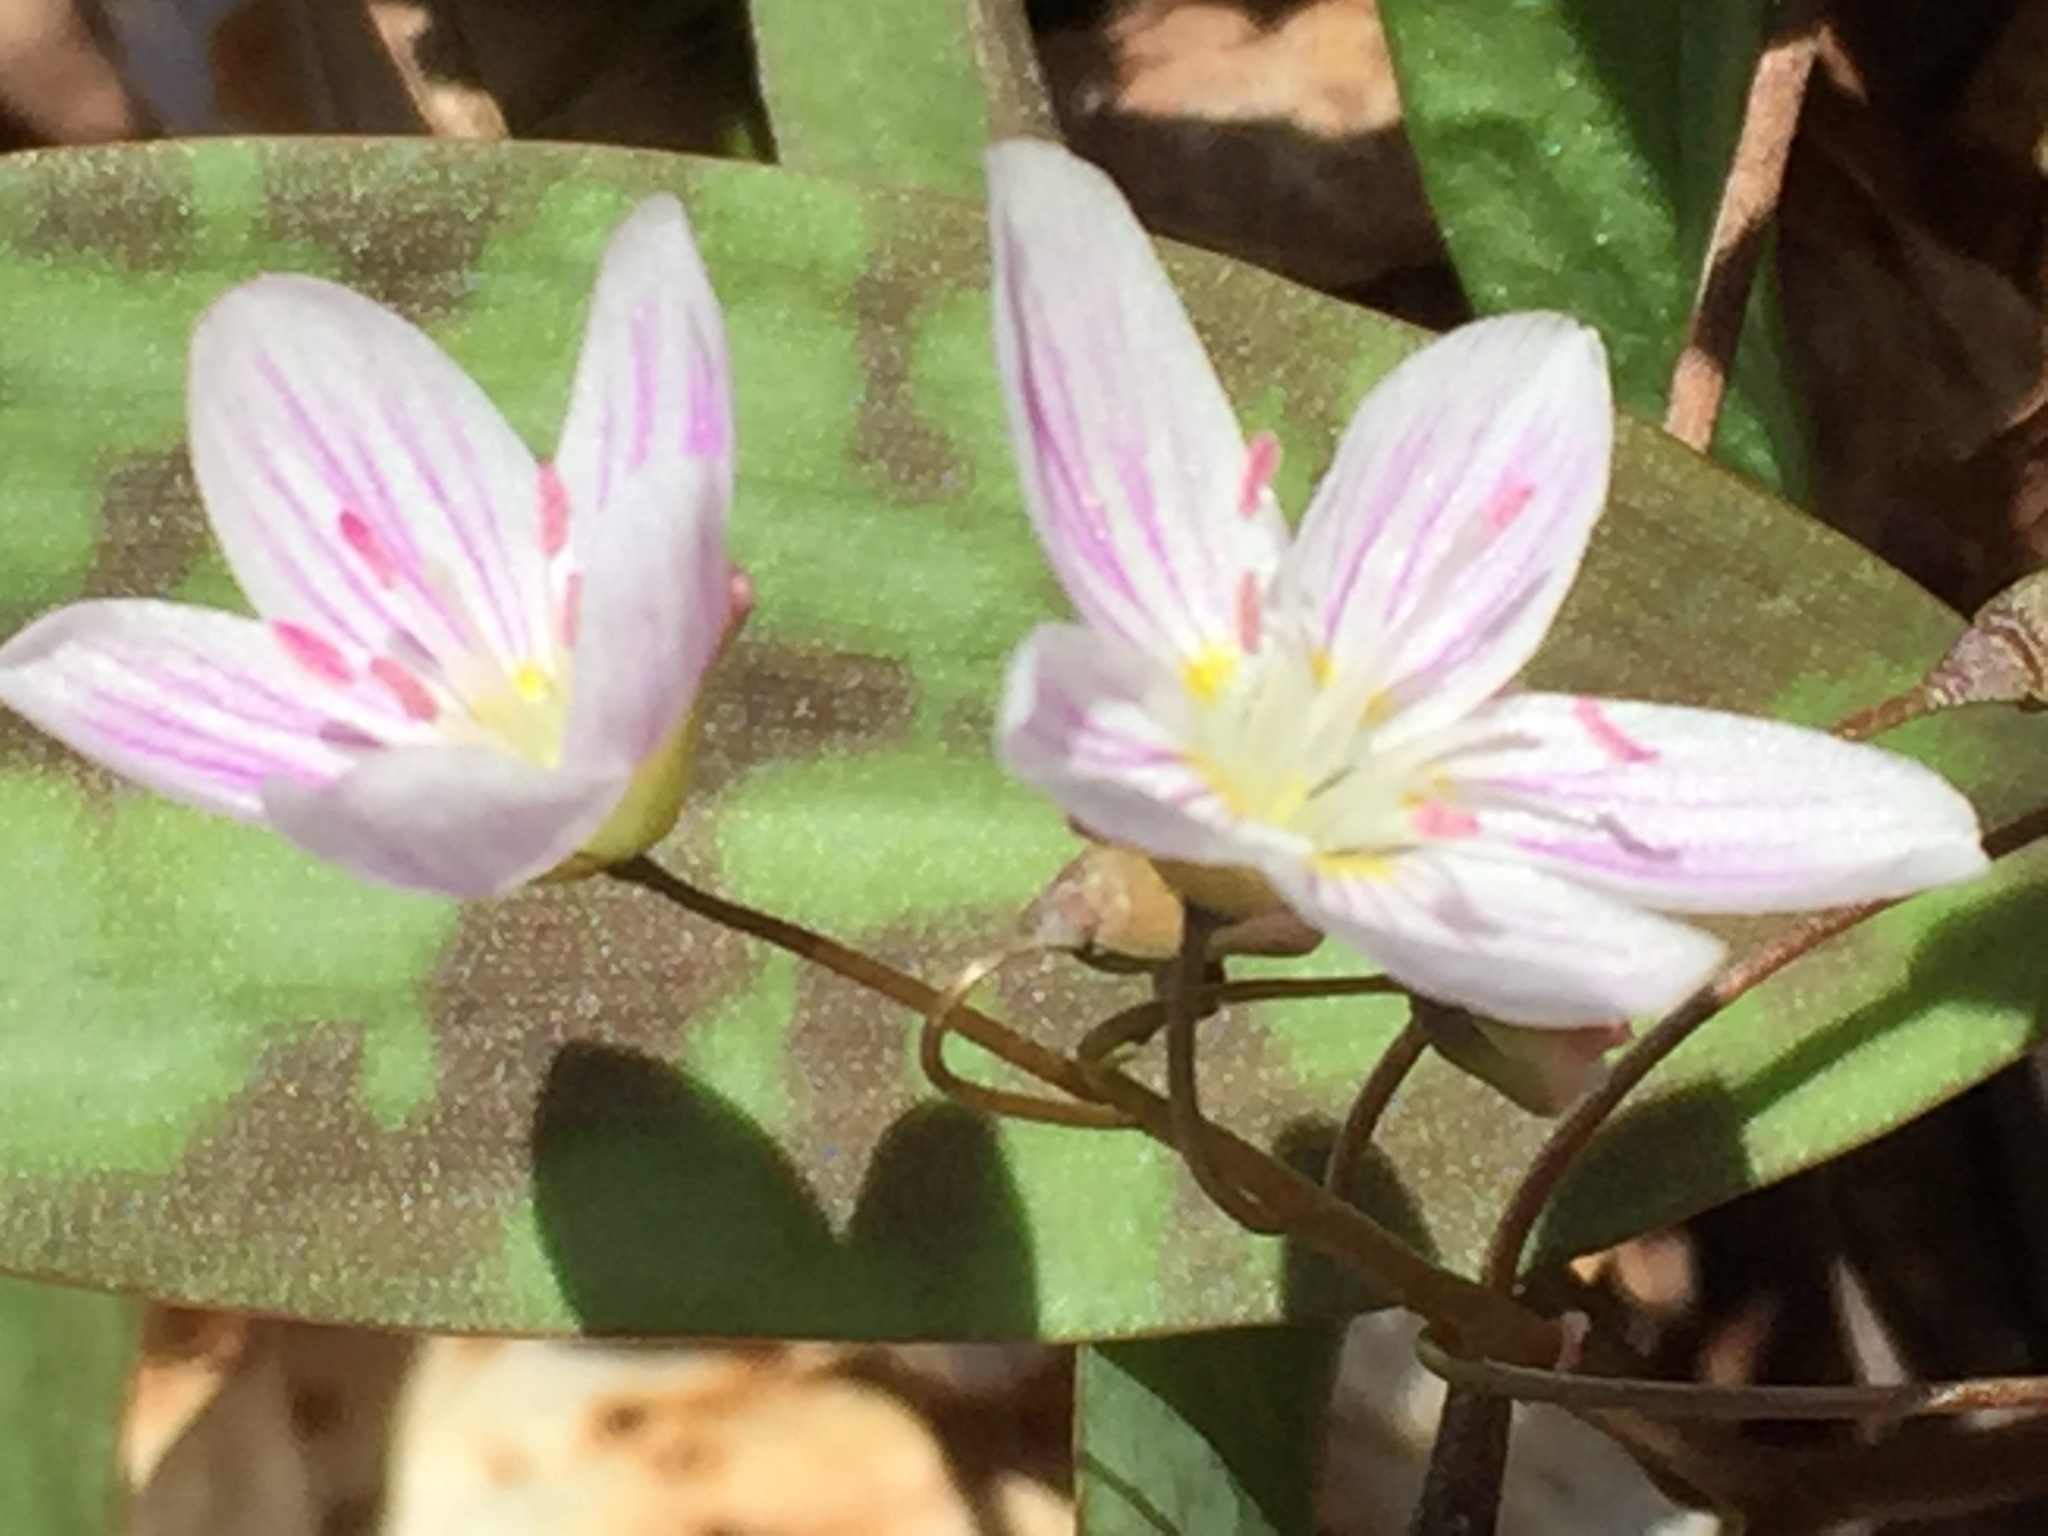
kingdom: Plantae
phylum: Tracheophyta
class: Magnoliopsida
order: Caryophyllales
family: Montiaceae
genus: Claytonia
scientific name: Claytonia caroliniana
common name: Carolina spring beauty
